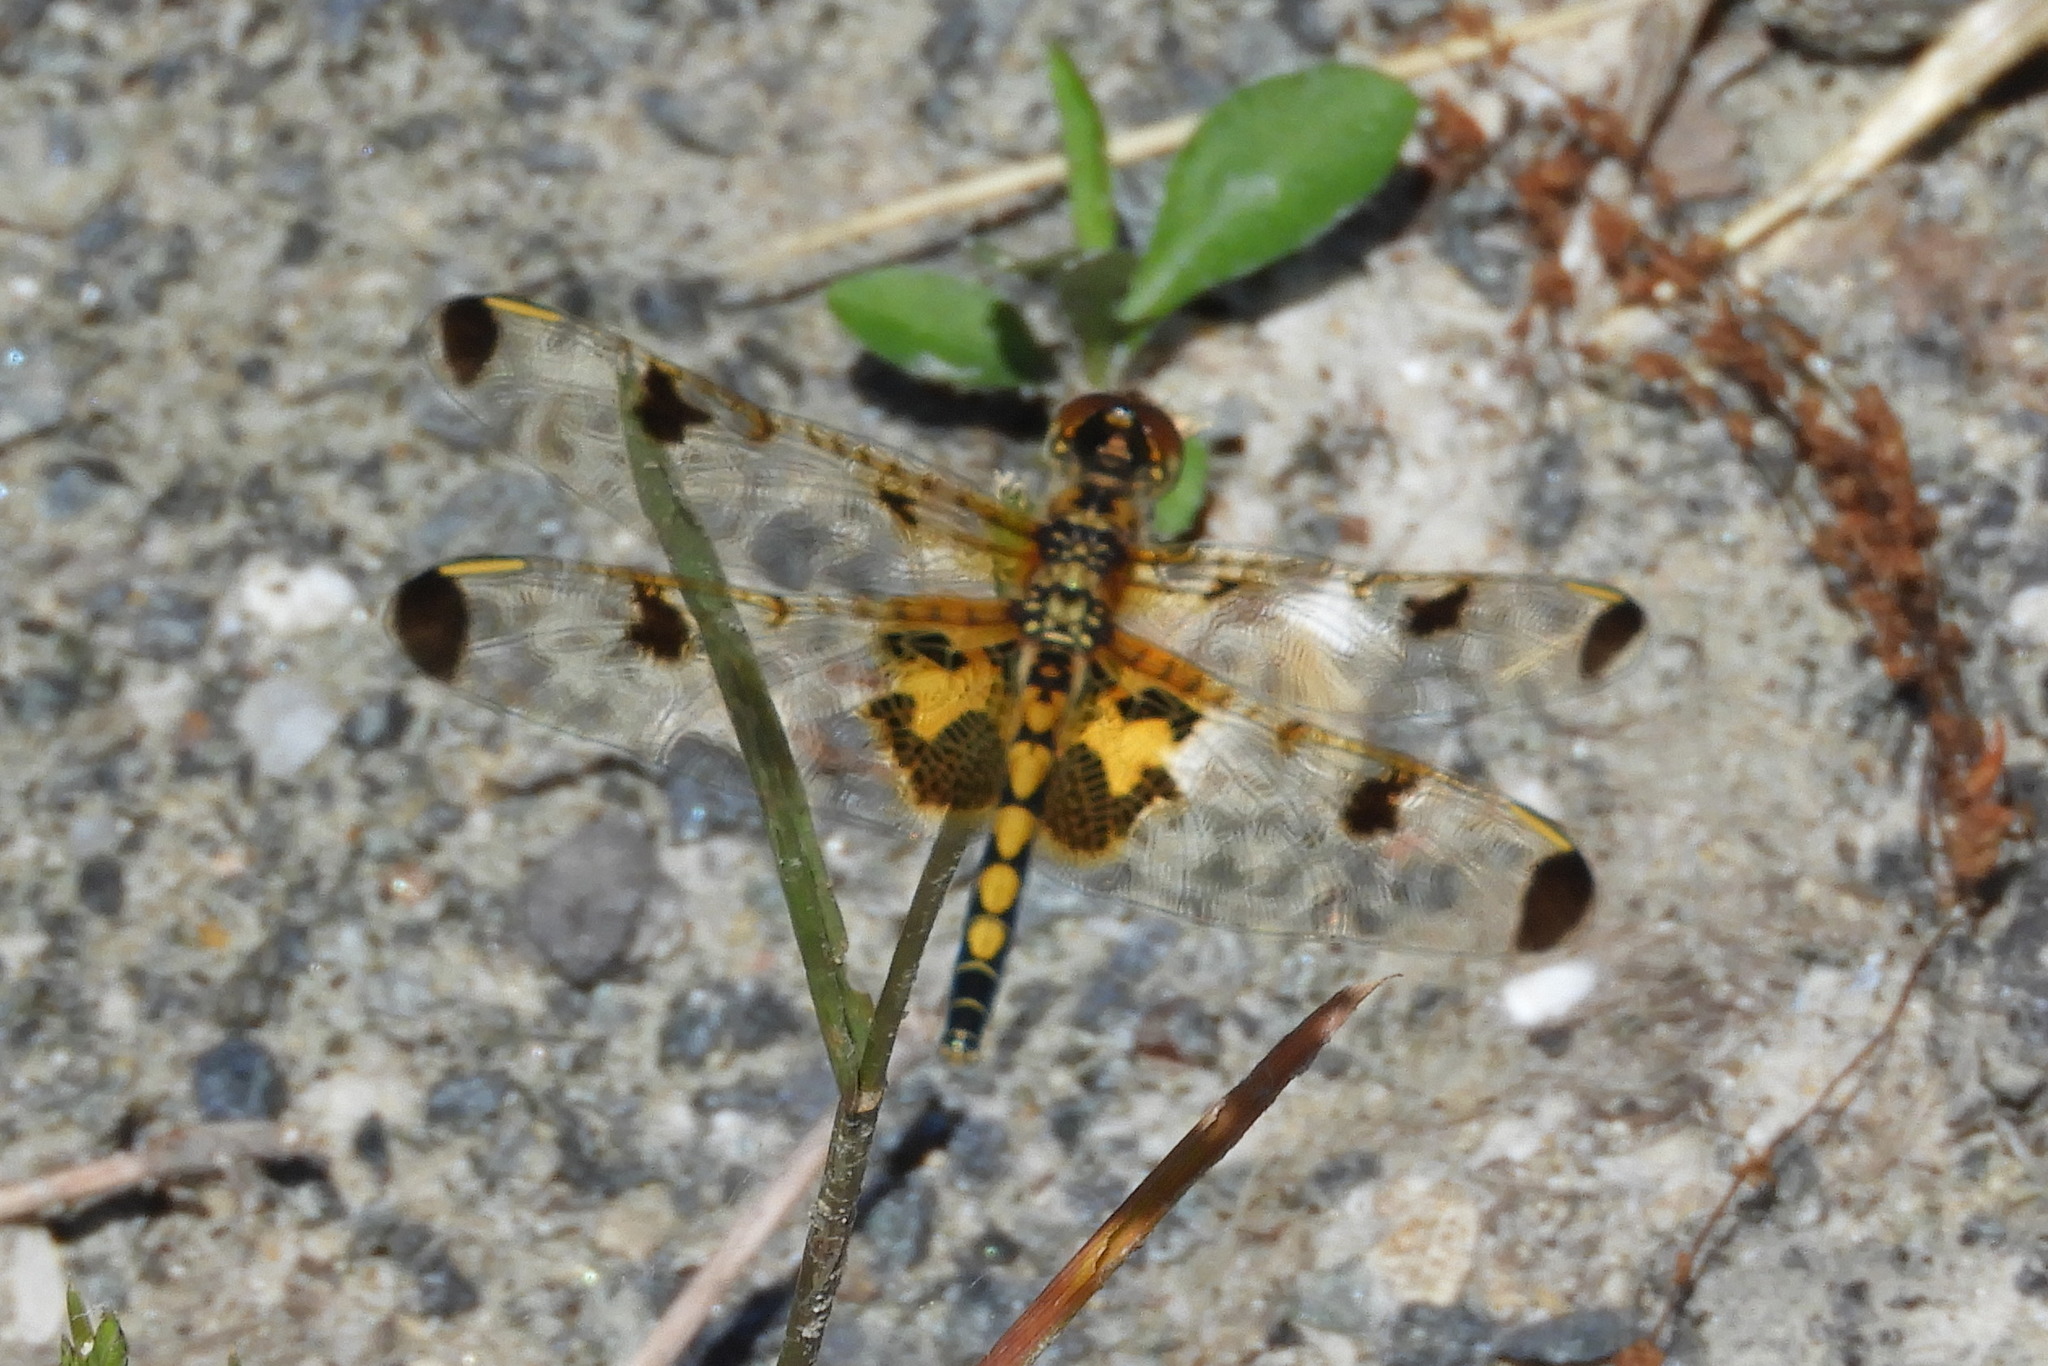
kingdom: Animalia
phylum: Arthropoda
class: Insecta
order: Odonata
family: Libellulidae
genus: Celithemis
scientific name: Celithemis elisa
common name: Calico pennant
